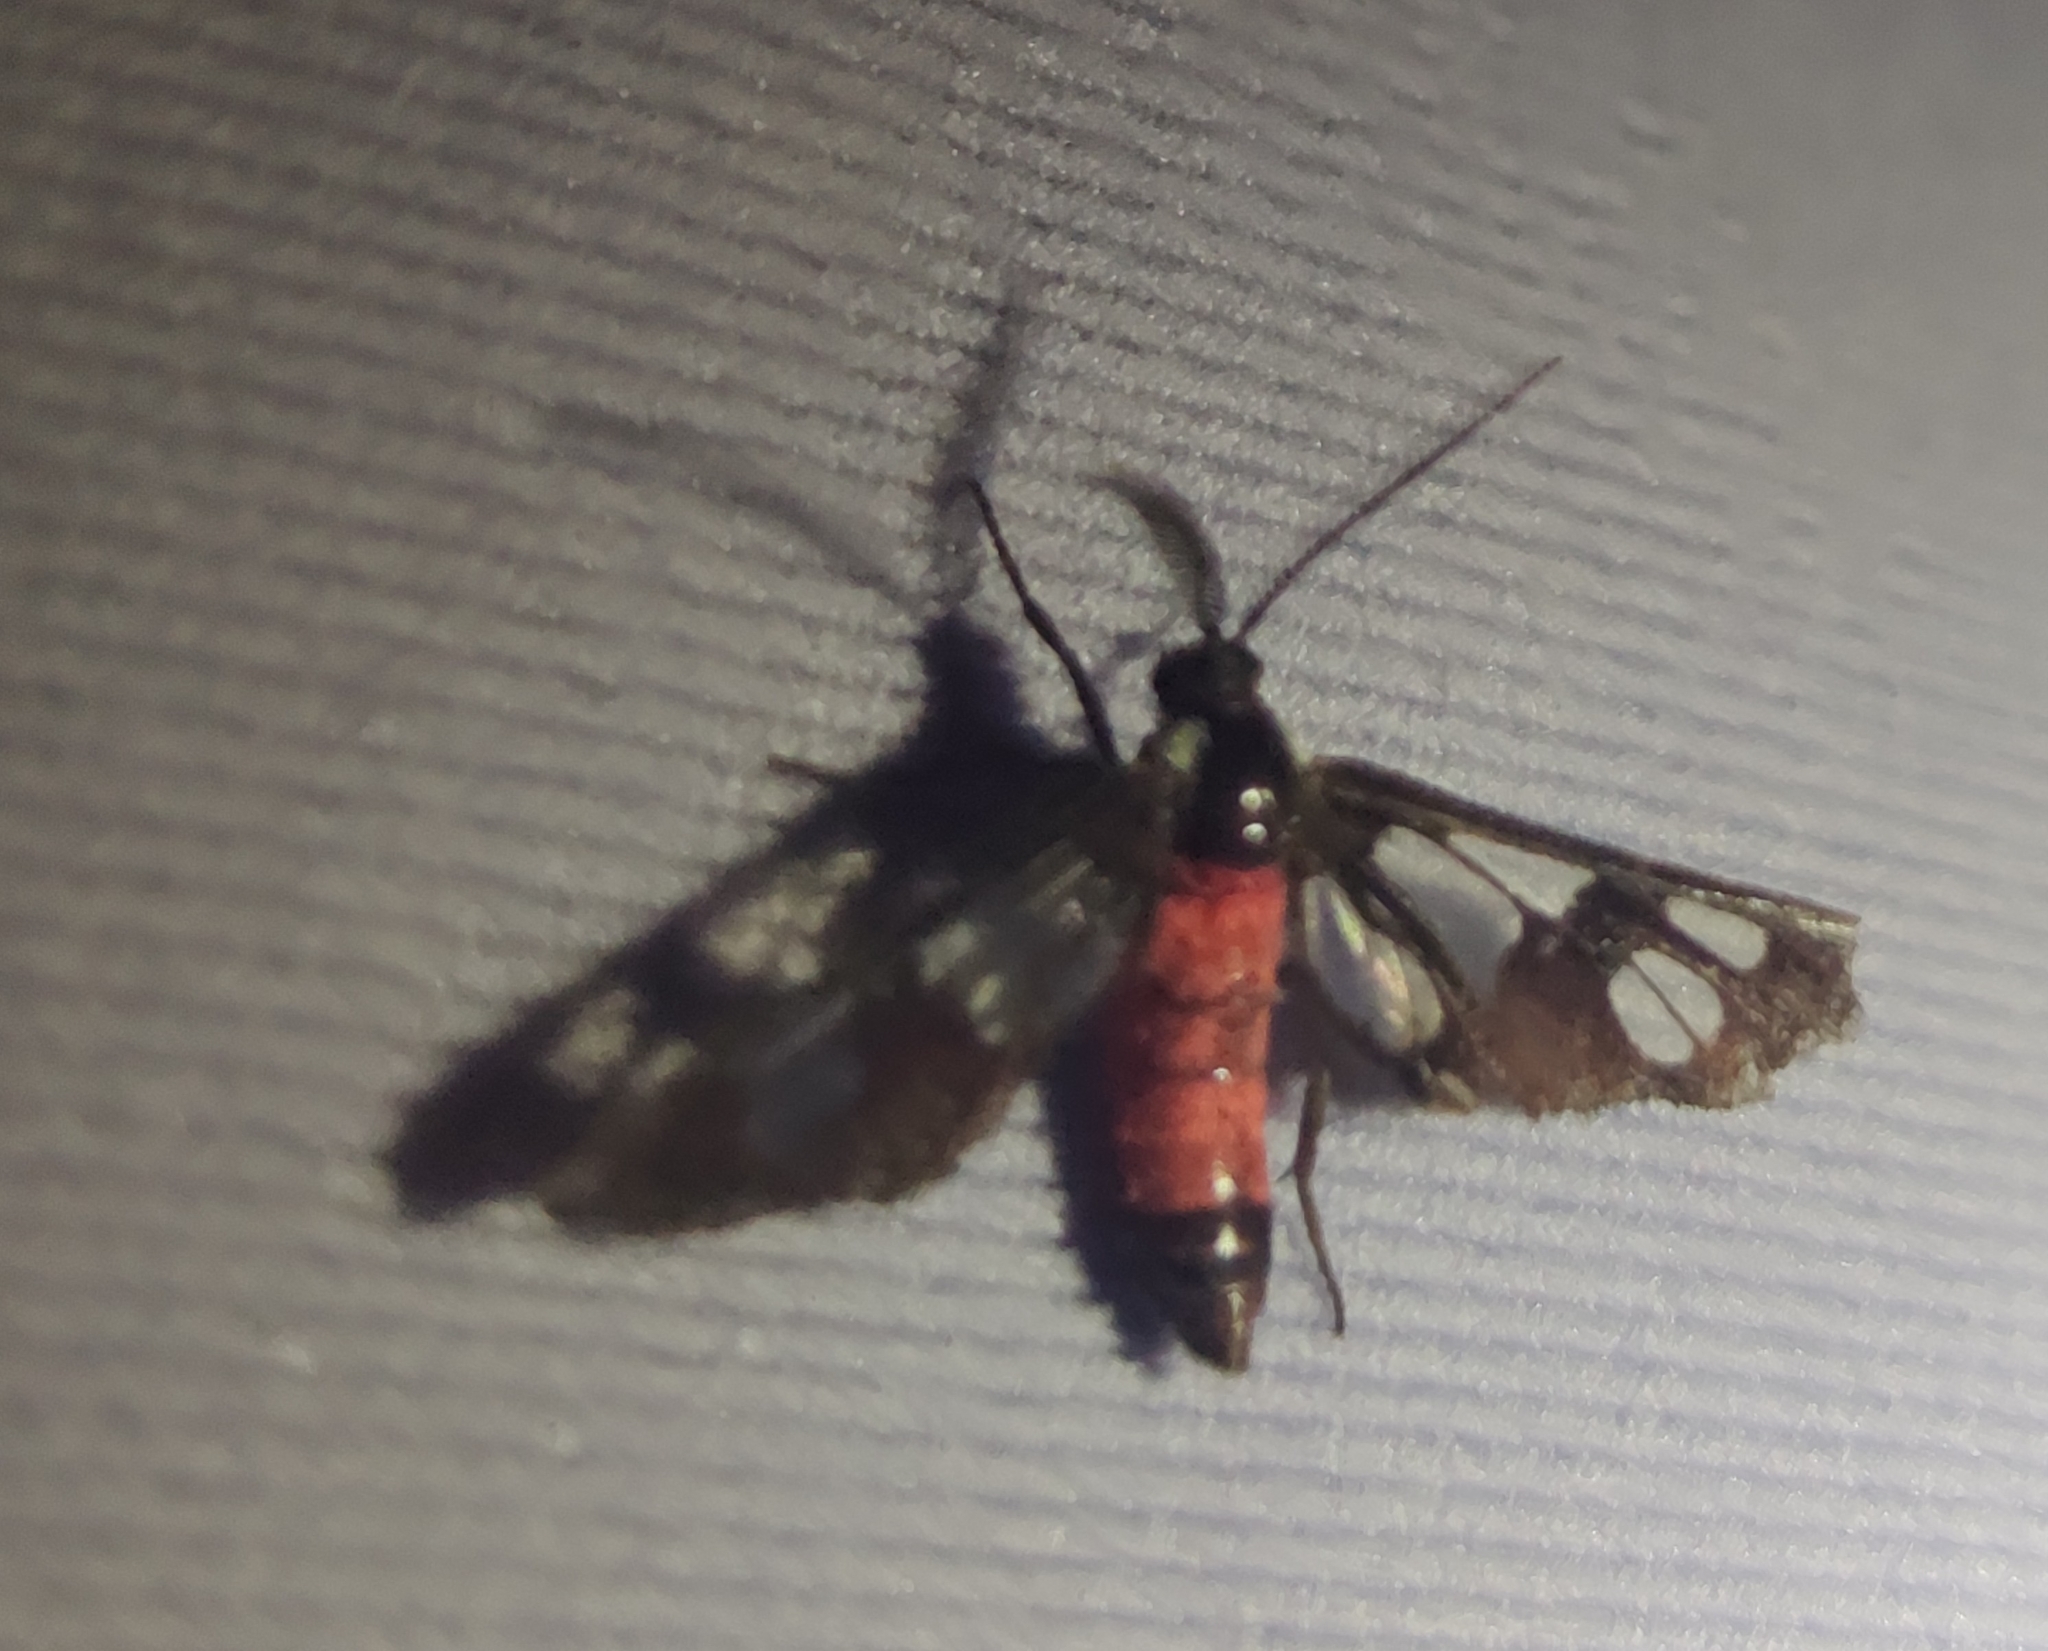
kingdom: Animalia
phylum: Arthropoda
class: Insecta
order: Lepidoptera
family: Erebidae
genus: Amata
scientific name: Amata fouqueti
